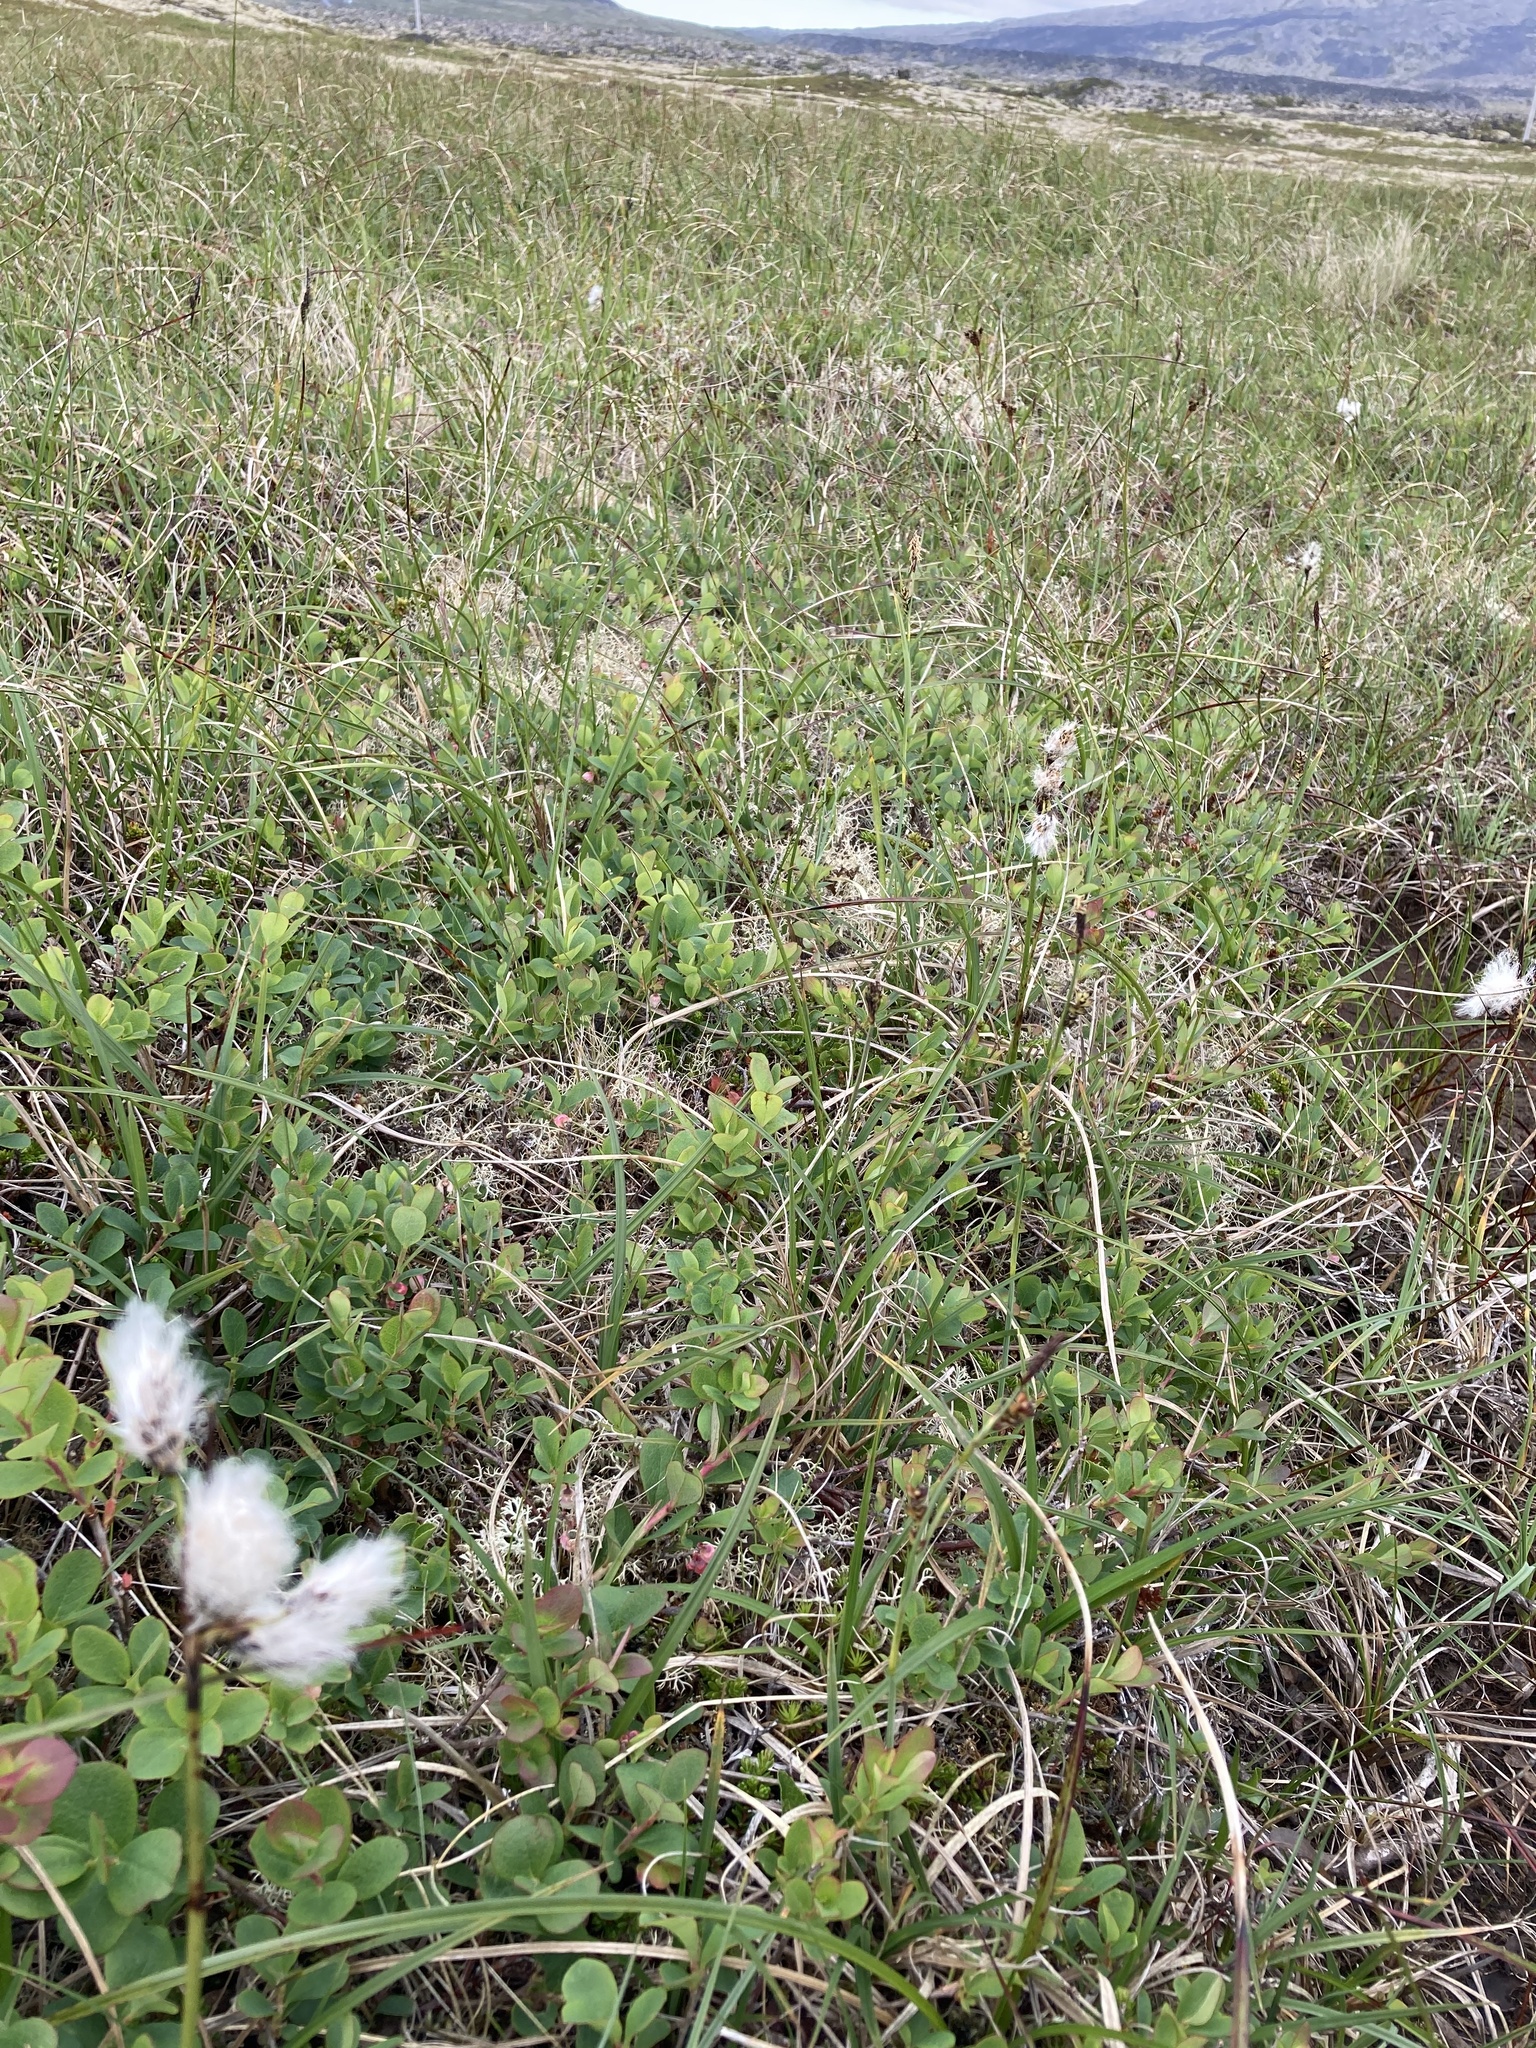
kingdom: Plantae
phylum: Tracheophyta
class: Liliopsida
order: Poales
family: Cyperaceae
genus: Eriophorum
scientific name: Eriophorum angustifolium
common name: Common cottongrass
